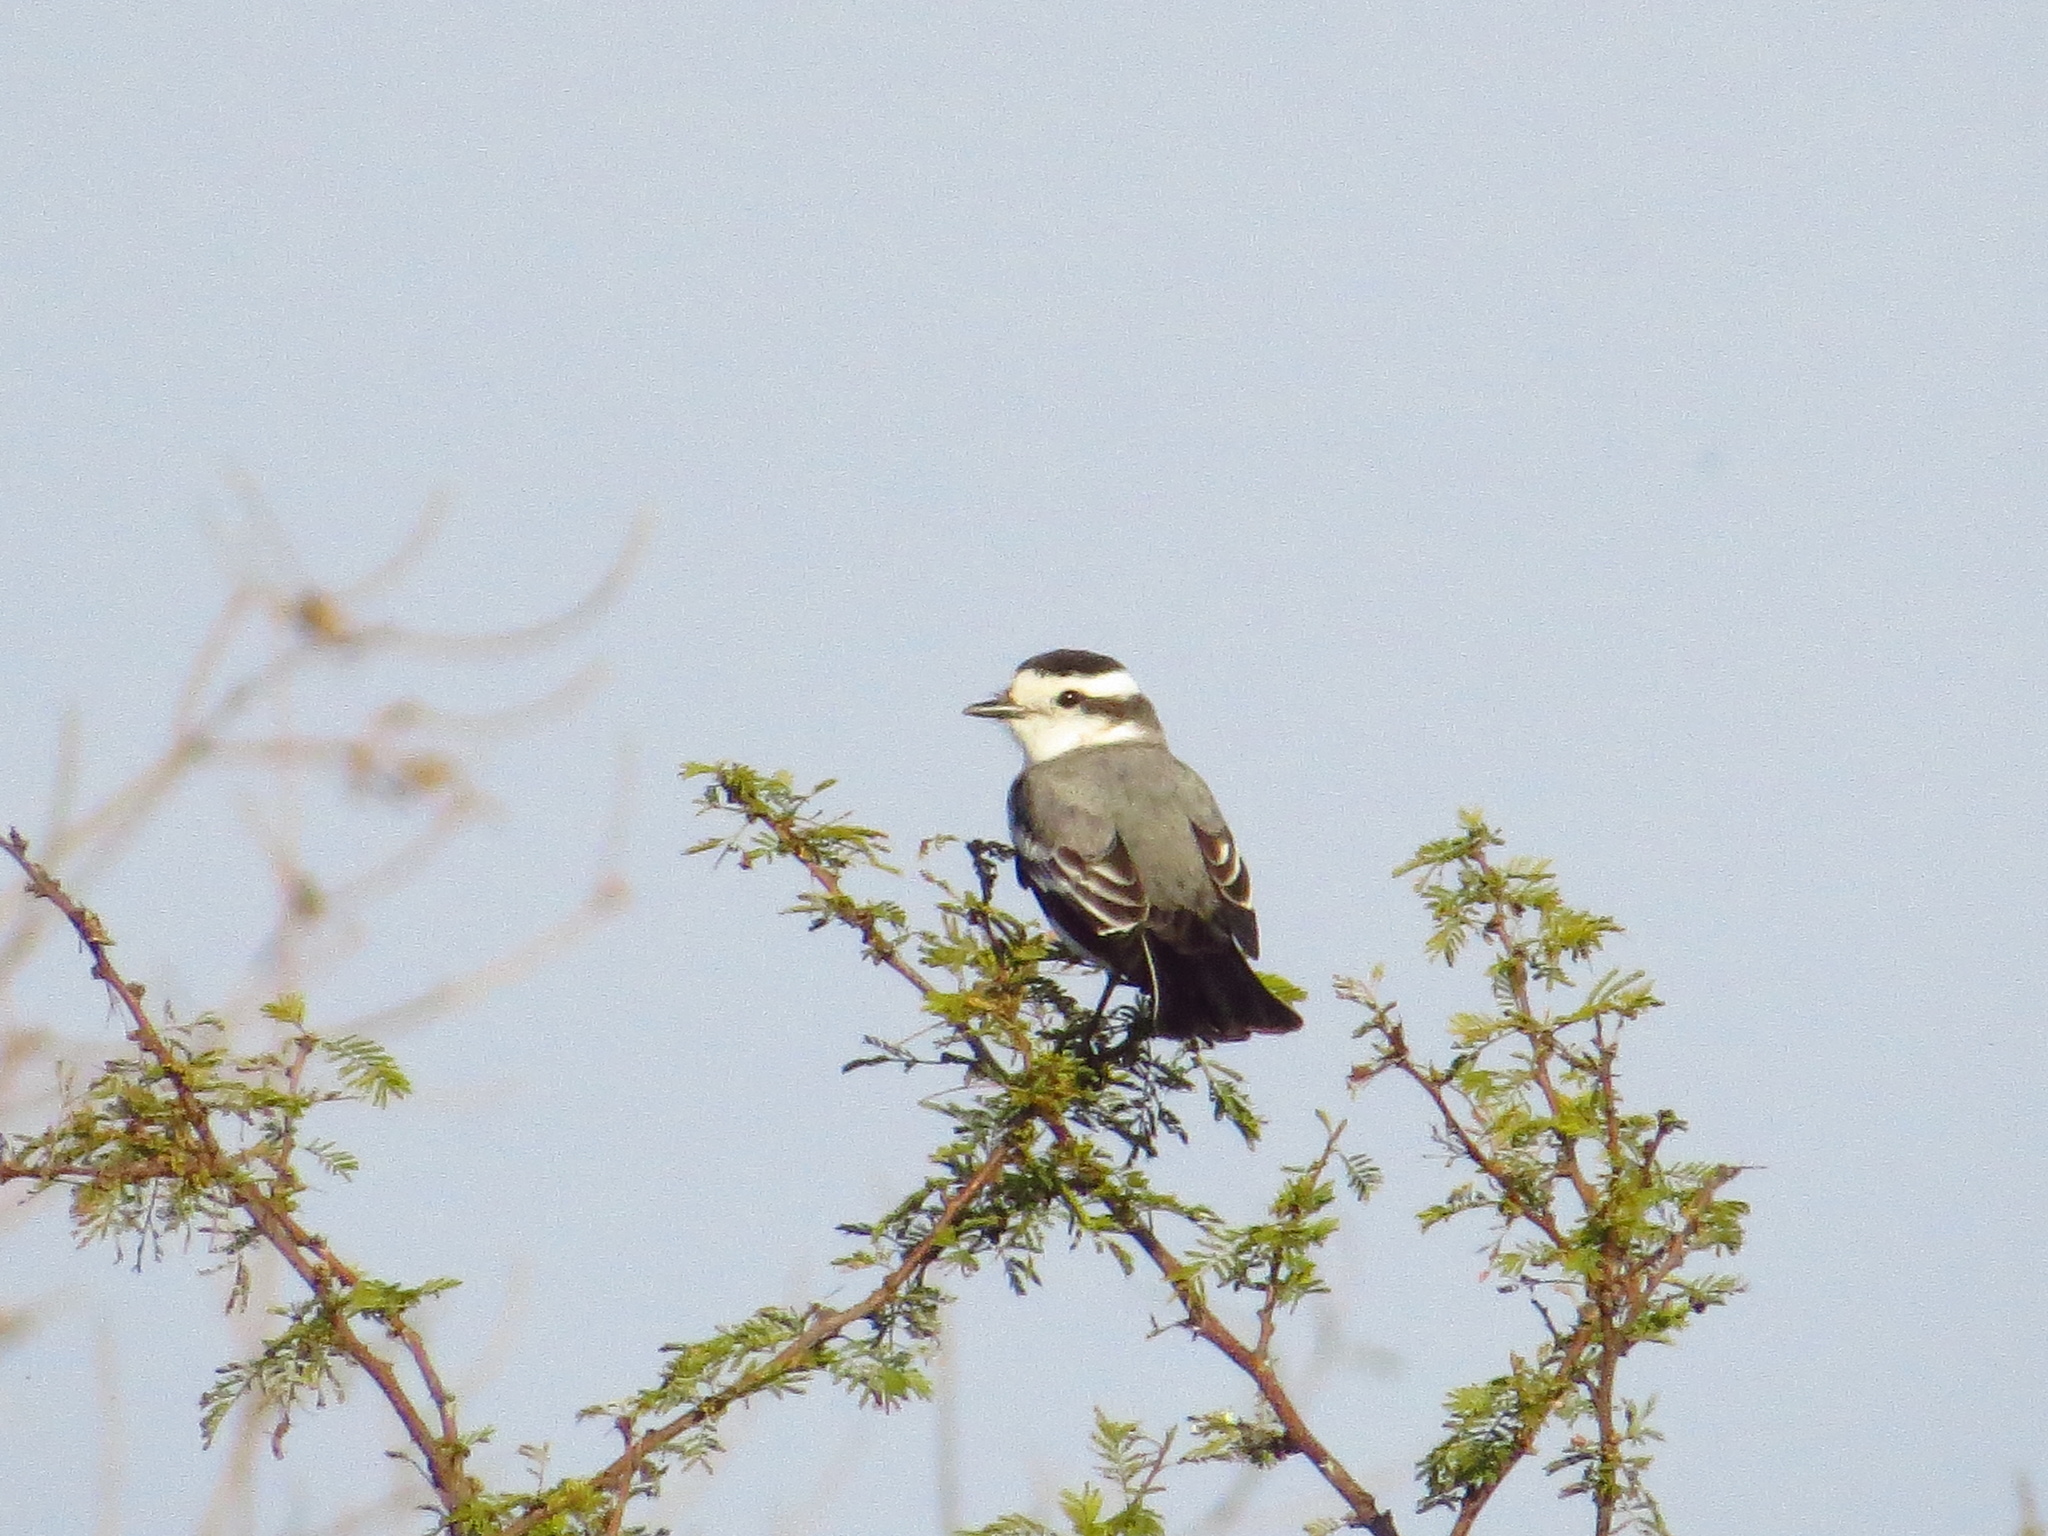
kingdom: Animalia
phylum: Chordata
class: Aves
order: Passeriformes
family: Tyrannidae
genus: Xolmis
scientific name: Xolmis coronatus
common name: Black-crowned monjita
